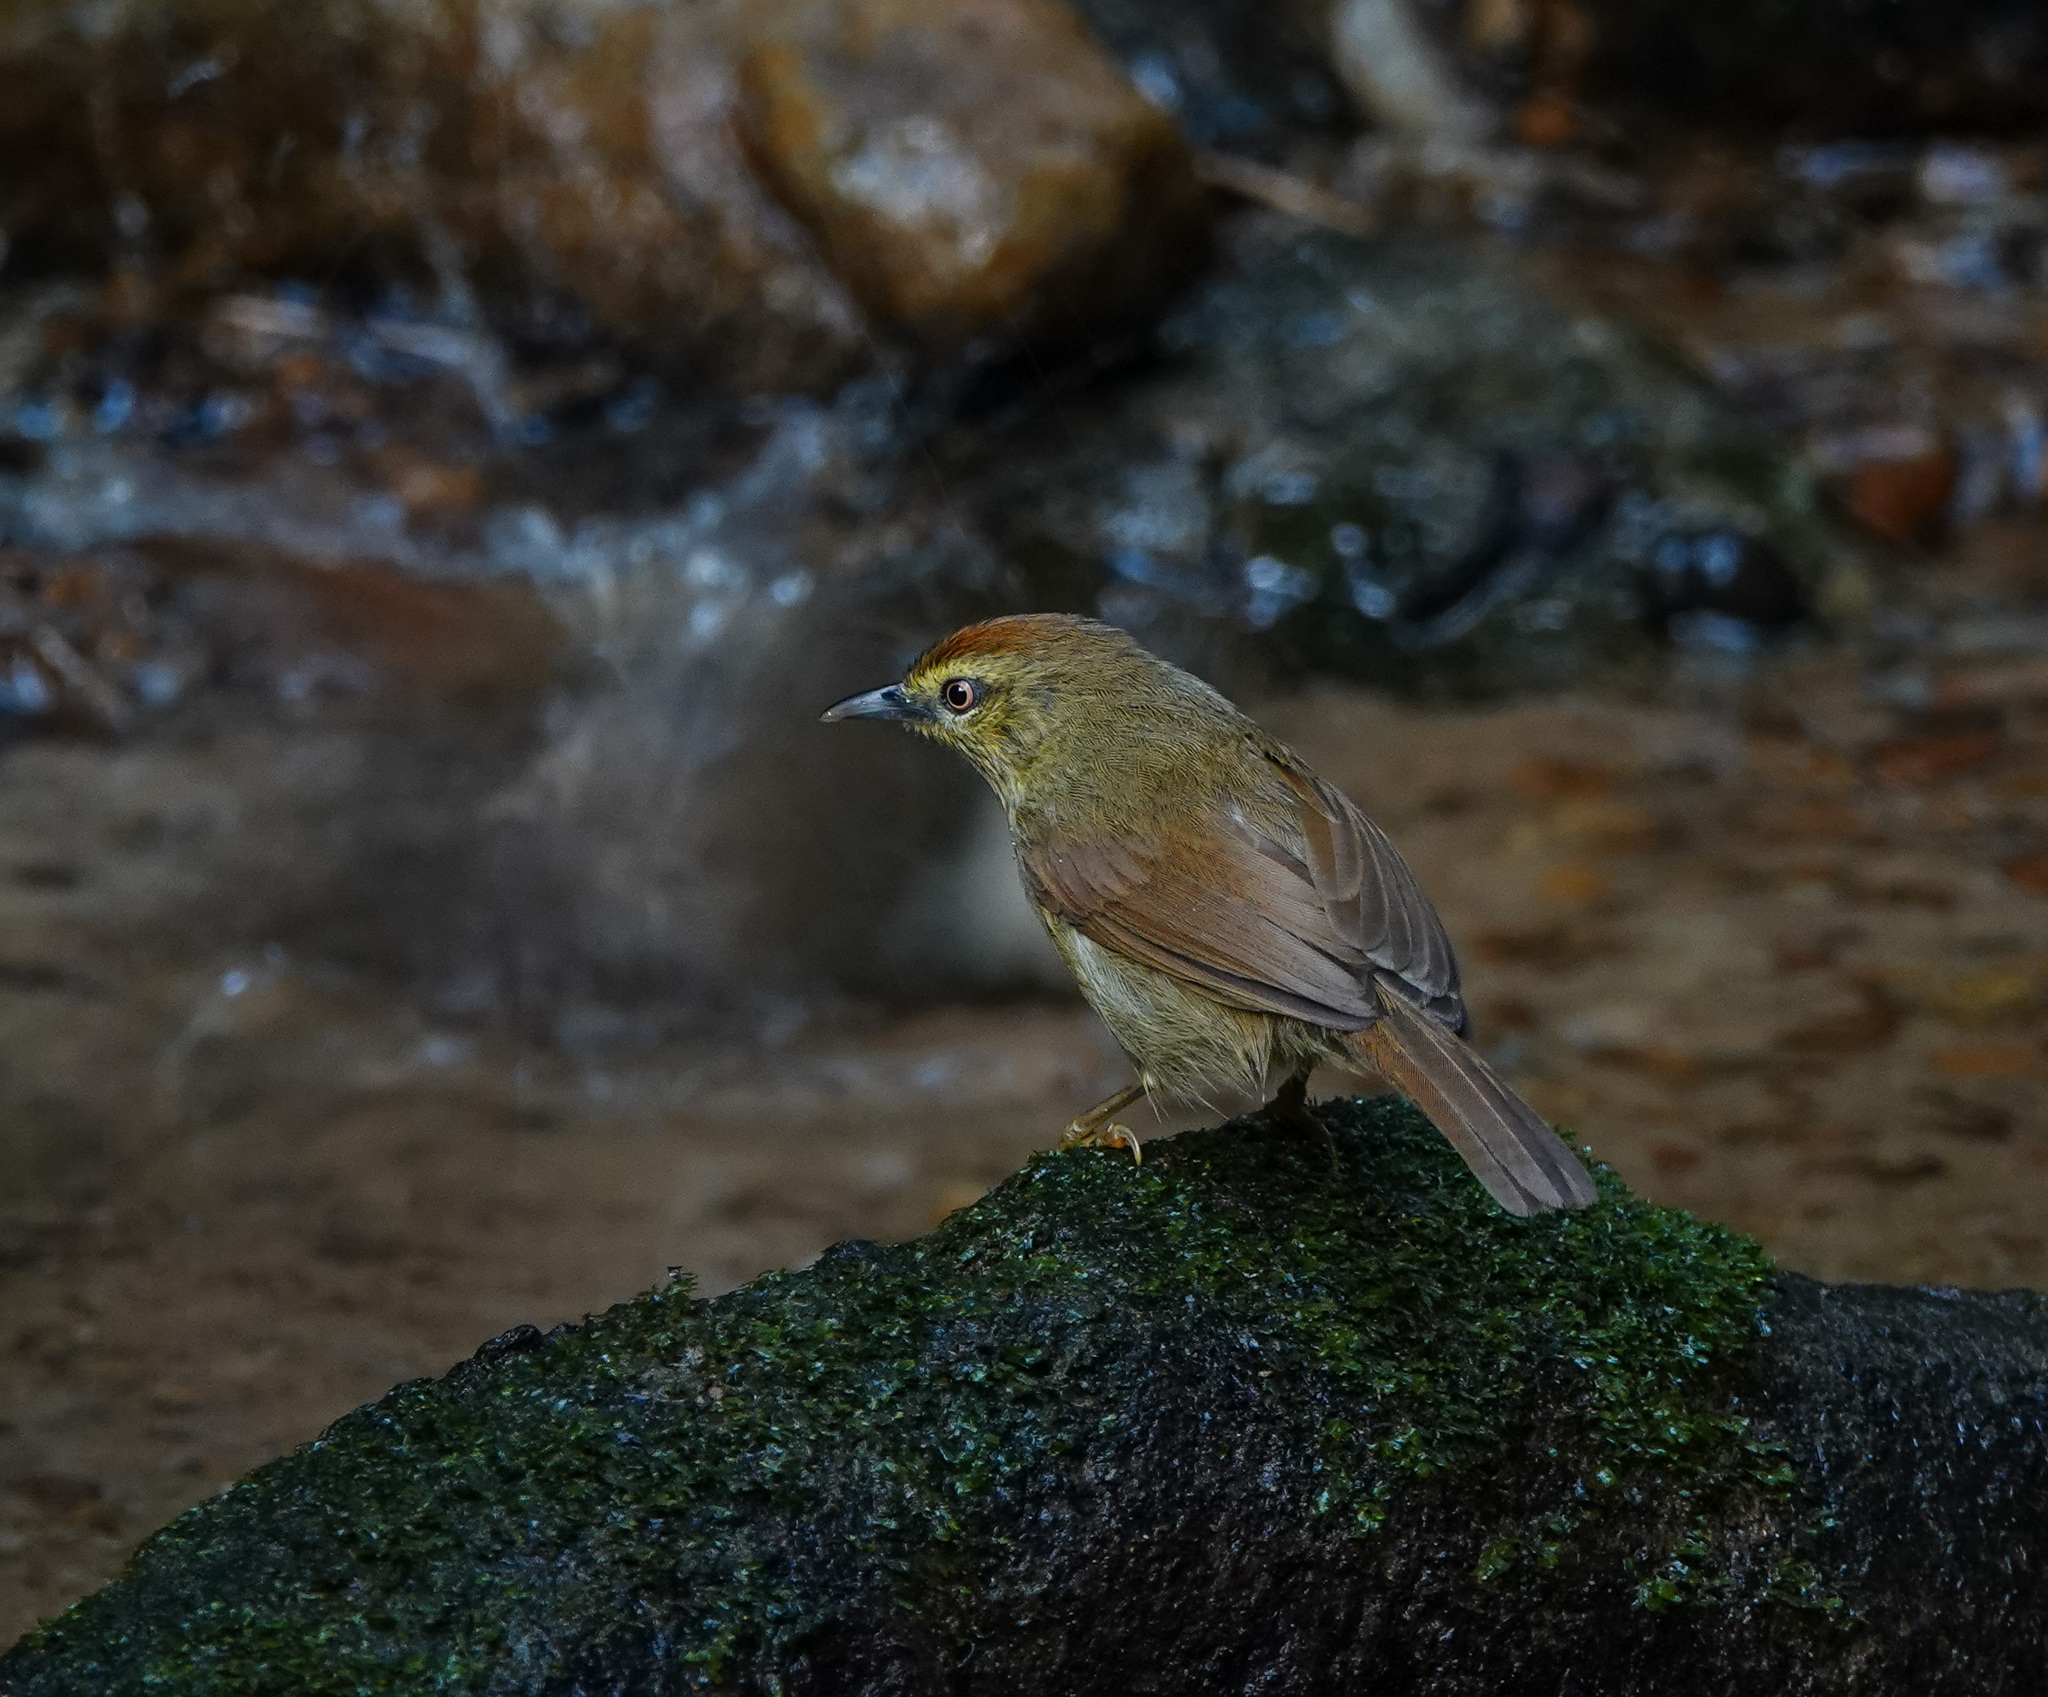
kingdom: Animalia
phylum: Chordata
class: Aves
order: Passeriformes
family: Timaliidae
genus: Macronus
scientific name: Macronus gularis
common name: Striped tit-babbler
